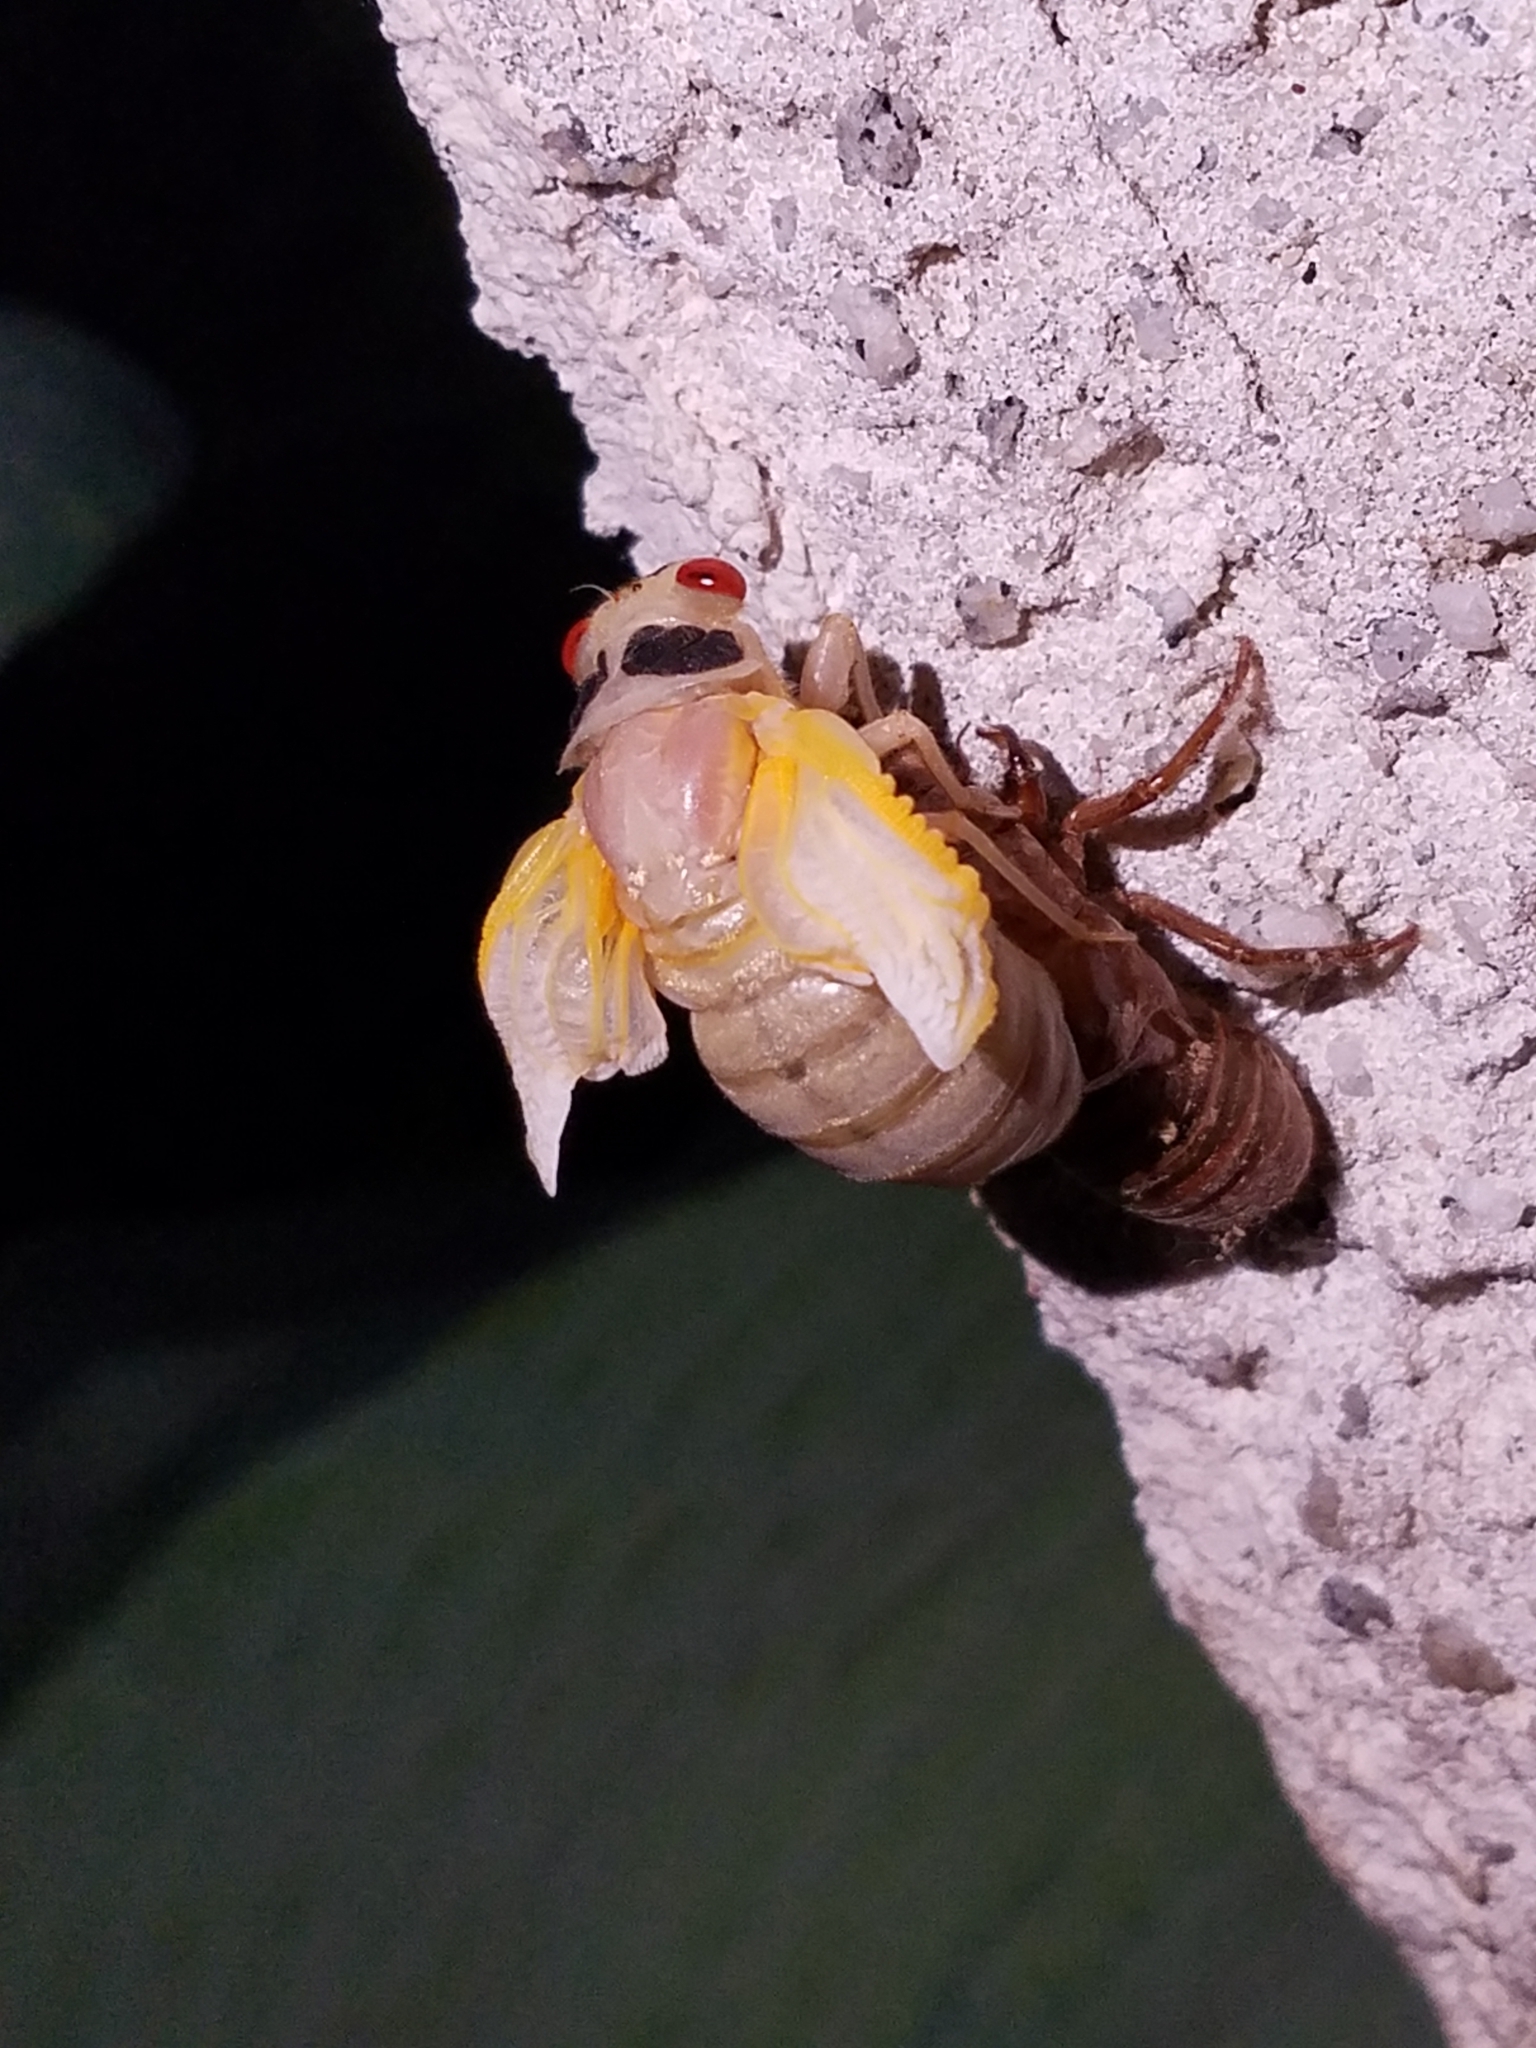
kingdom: Animalia
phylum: Arthropoda
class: Insecta
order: Hemiptera
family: Cicadidae
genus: Magicicada
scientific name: Magicicada
